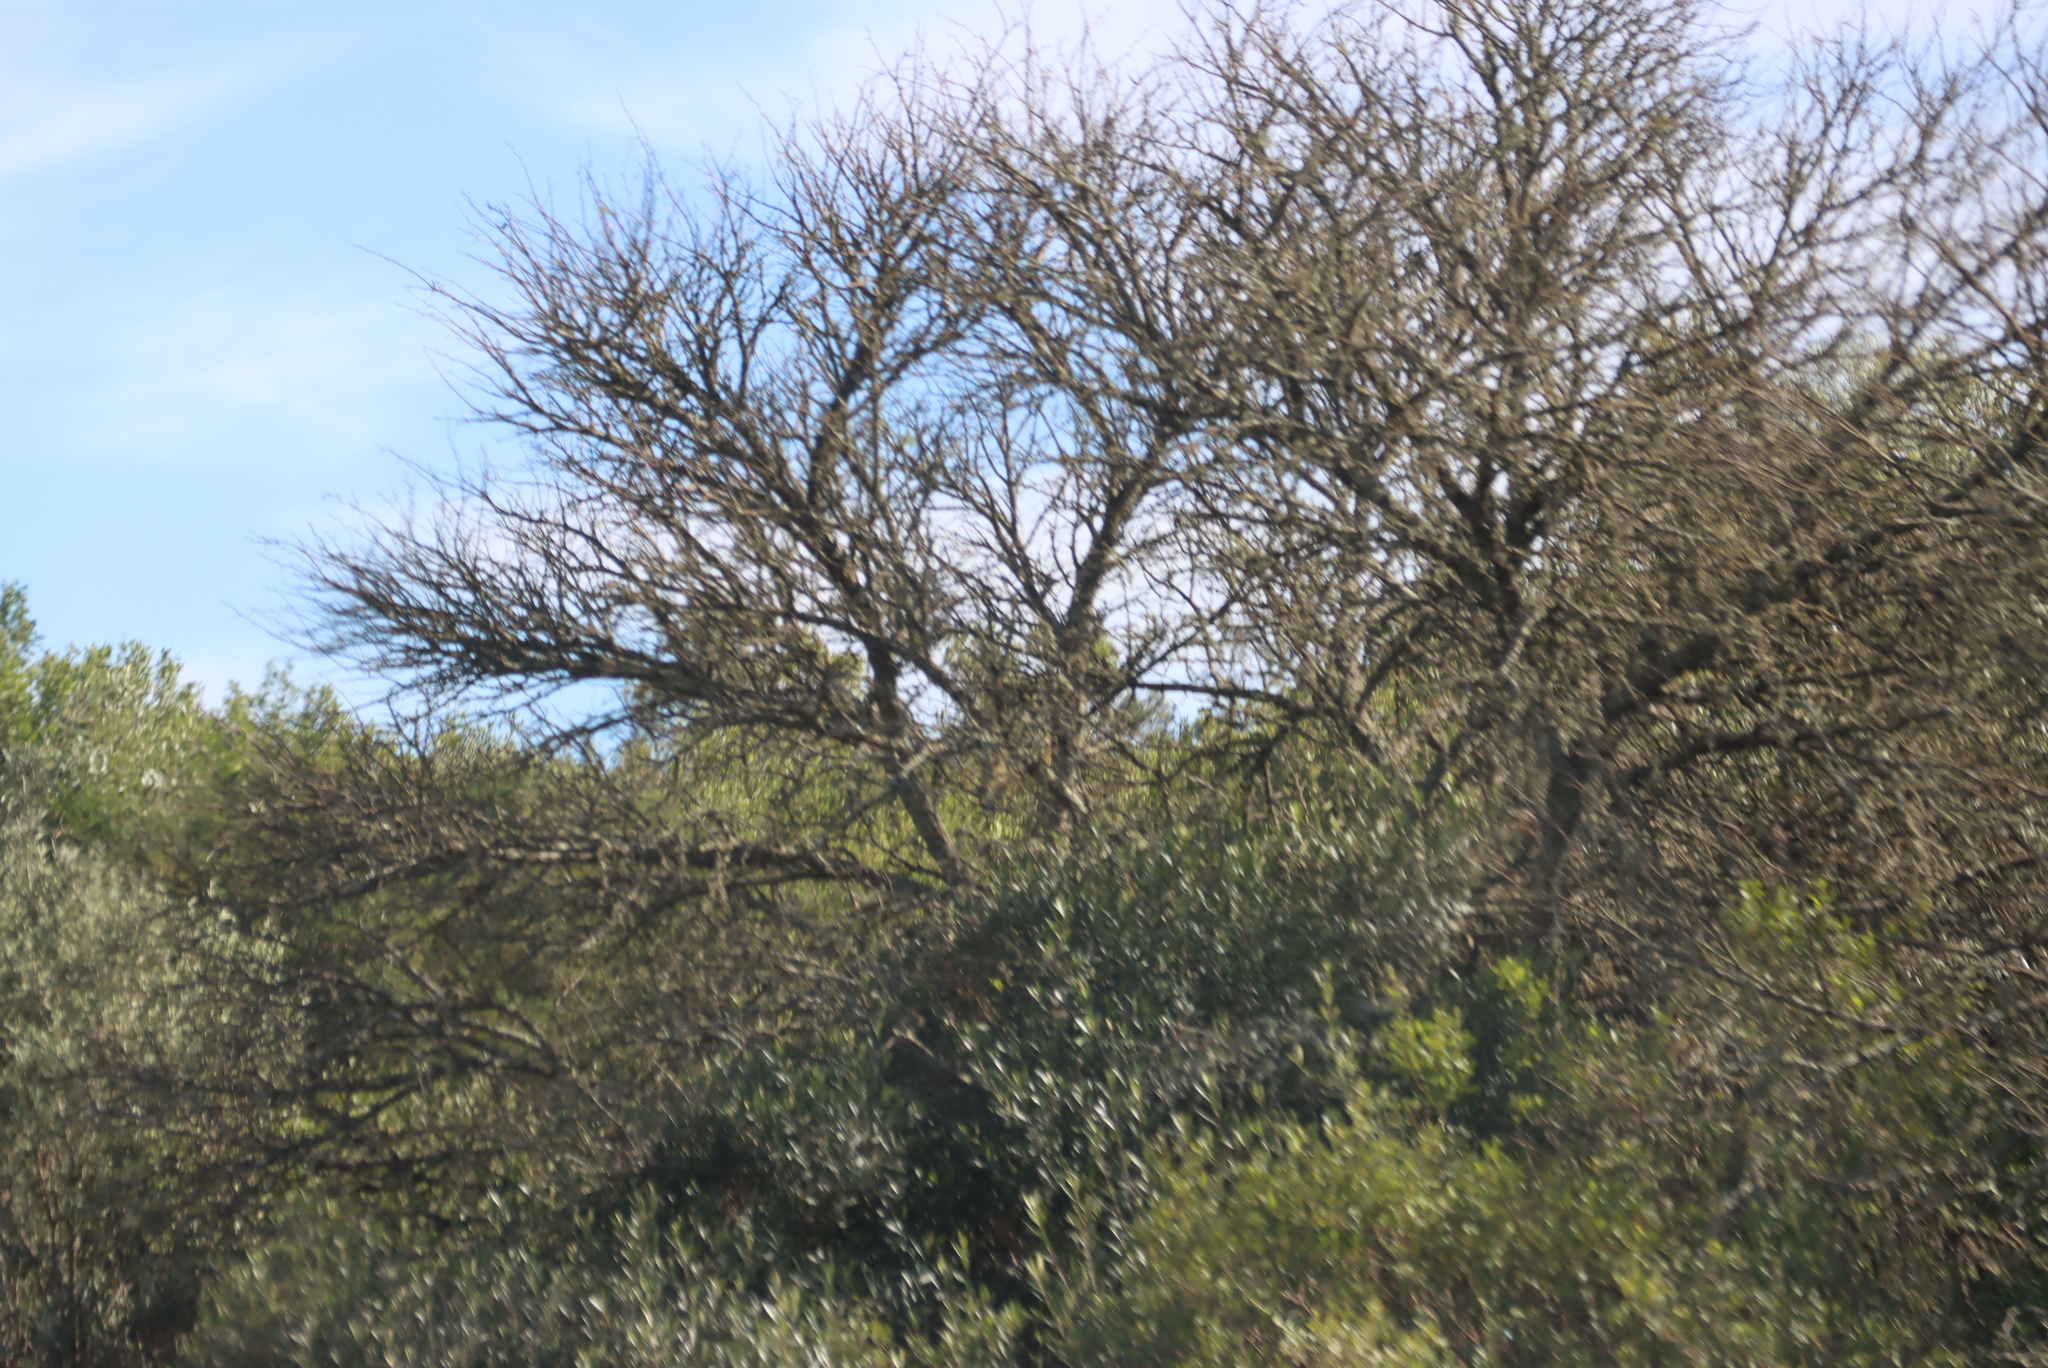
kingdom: Plantae
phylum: Tracheophyta
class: Magnoliopsida
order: Fabales
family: Fabaceae
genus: Vachellia
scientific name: Vachellia karroo
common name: Sweet thorn
